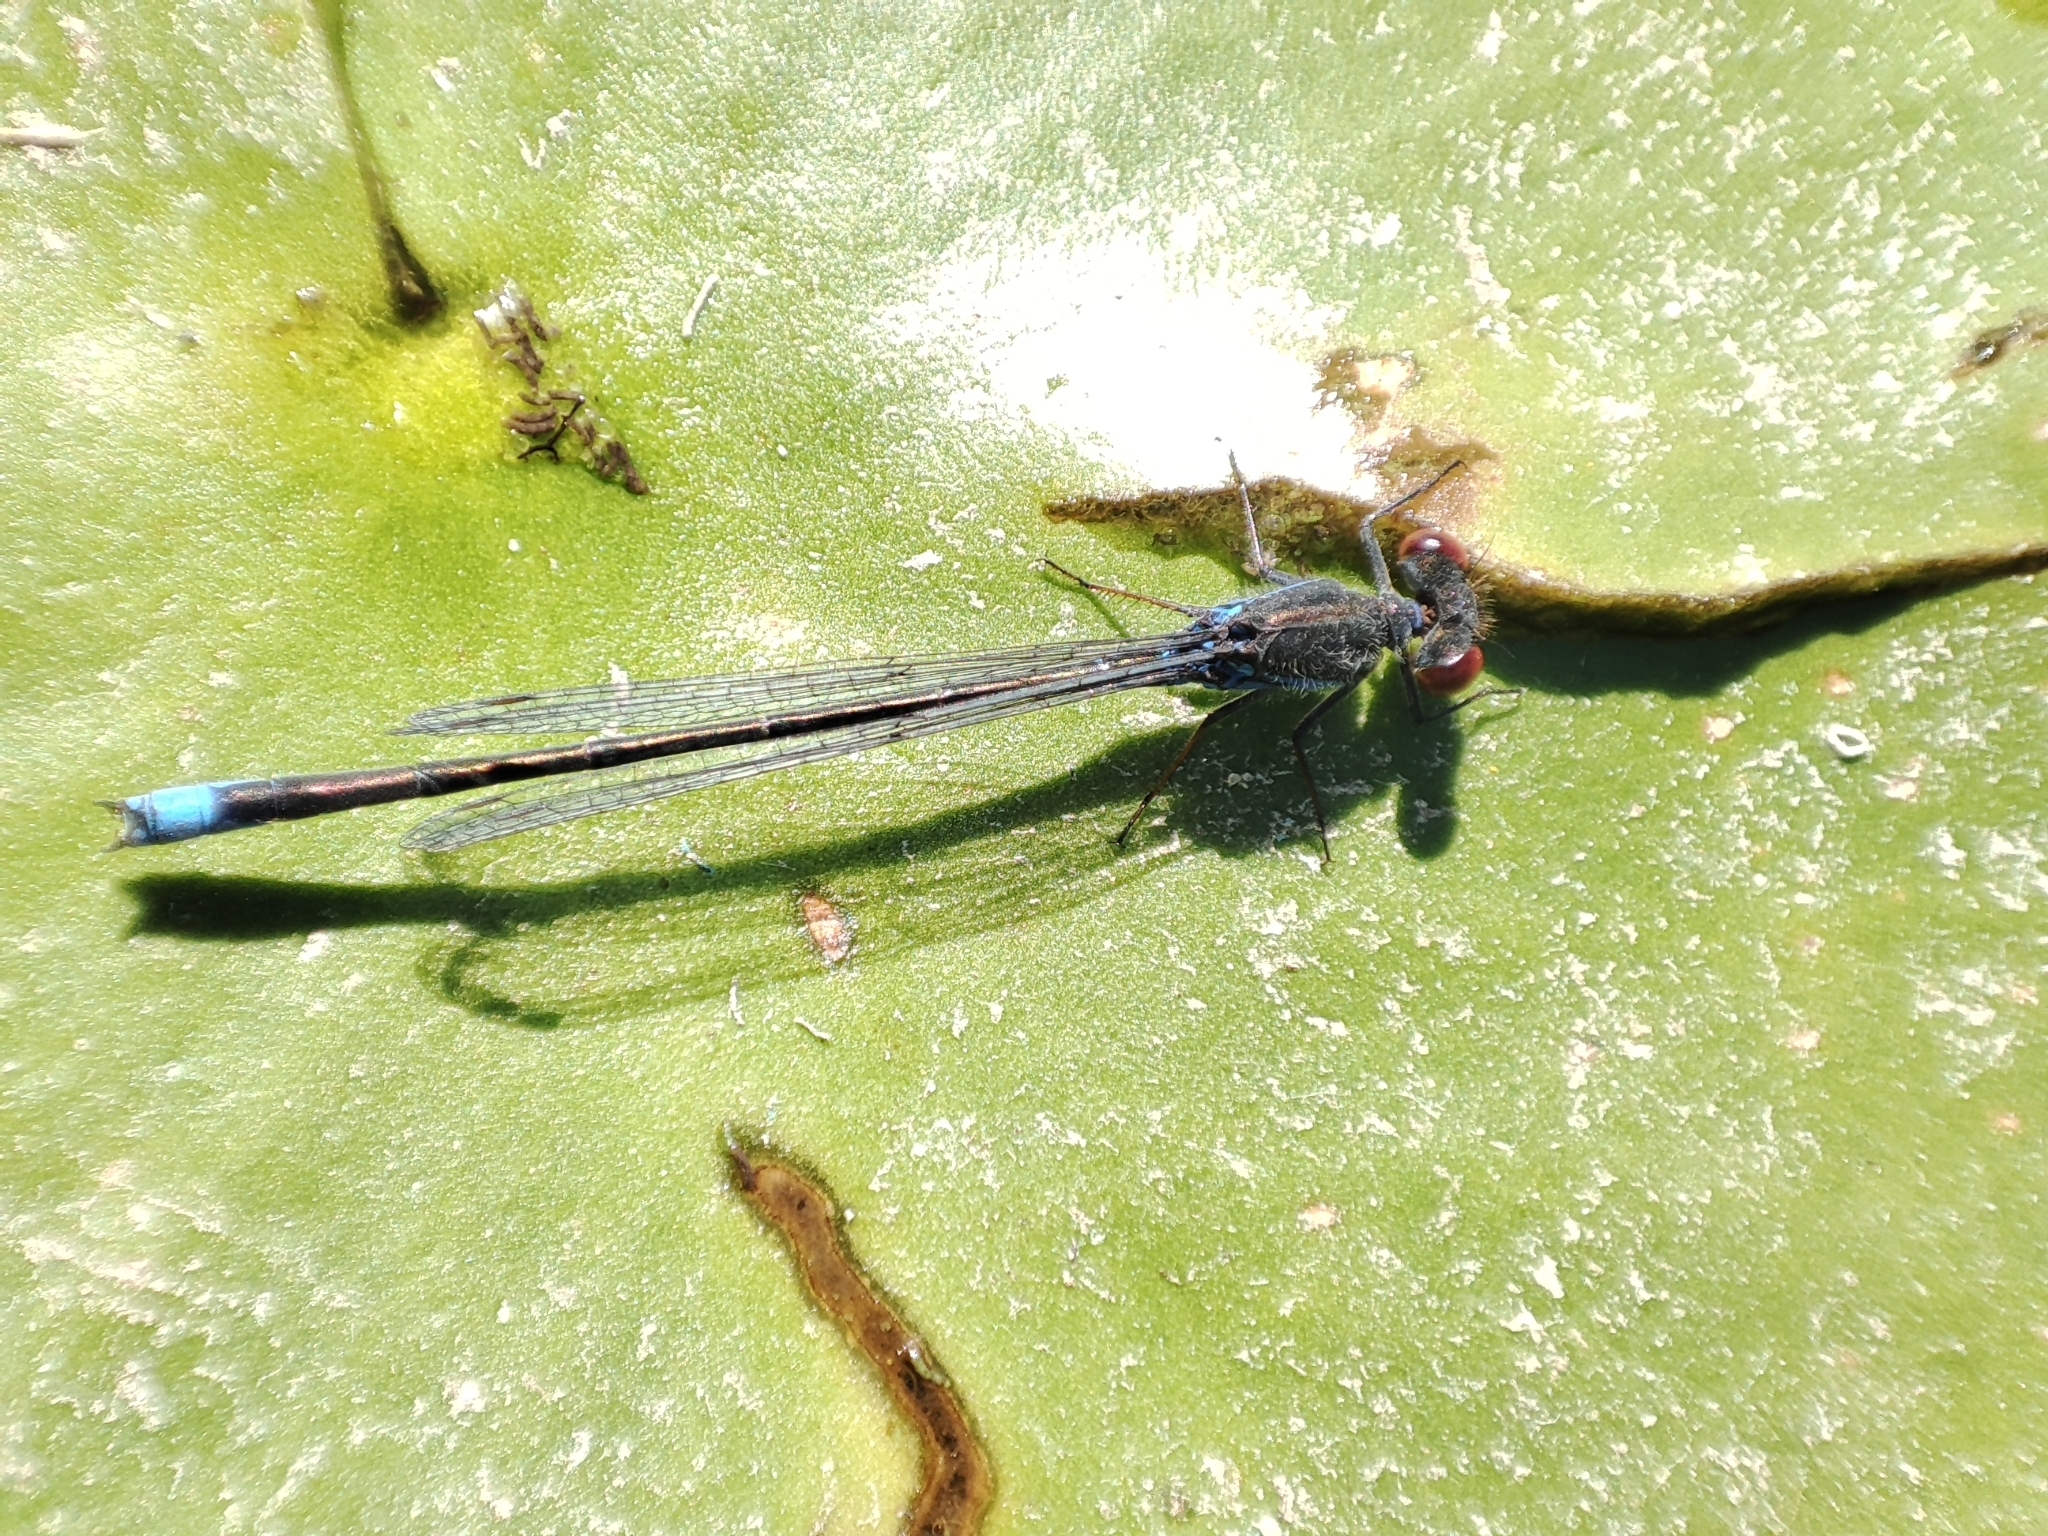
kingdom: Animalia
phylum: Arthropoda
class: Insecta
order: Odonata
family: Coenagrionidae
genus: Erythromma
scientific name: Erythromma viridulum
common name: Small red-eyed damselfly
